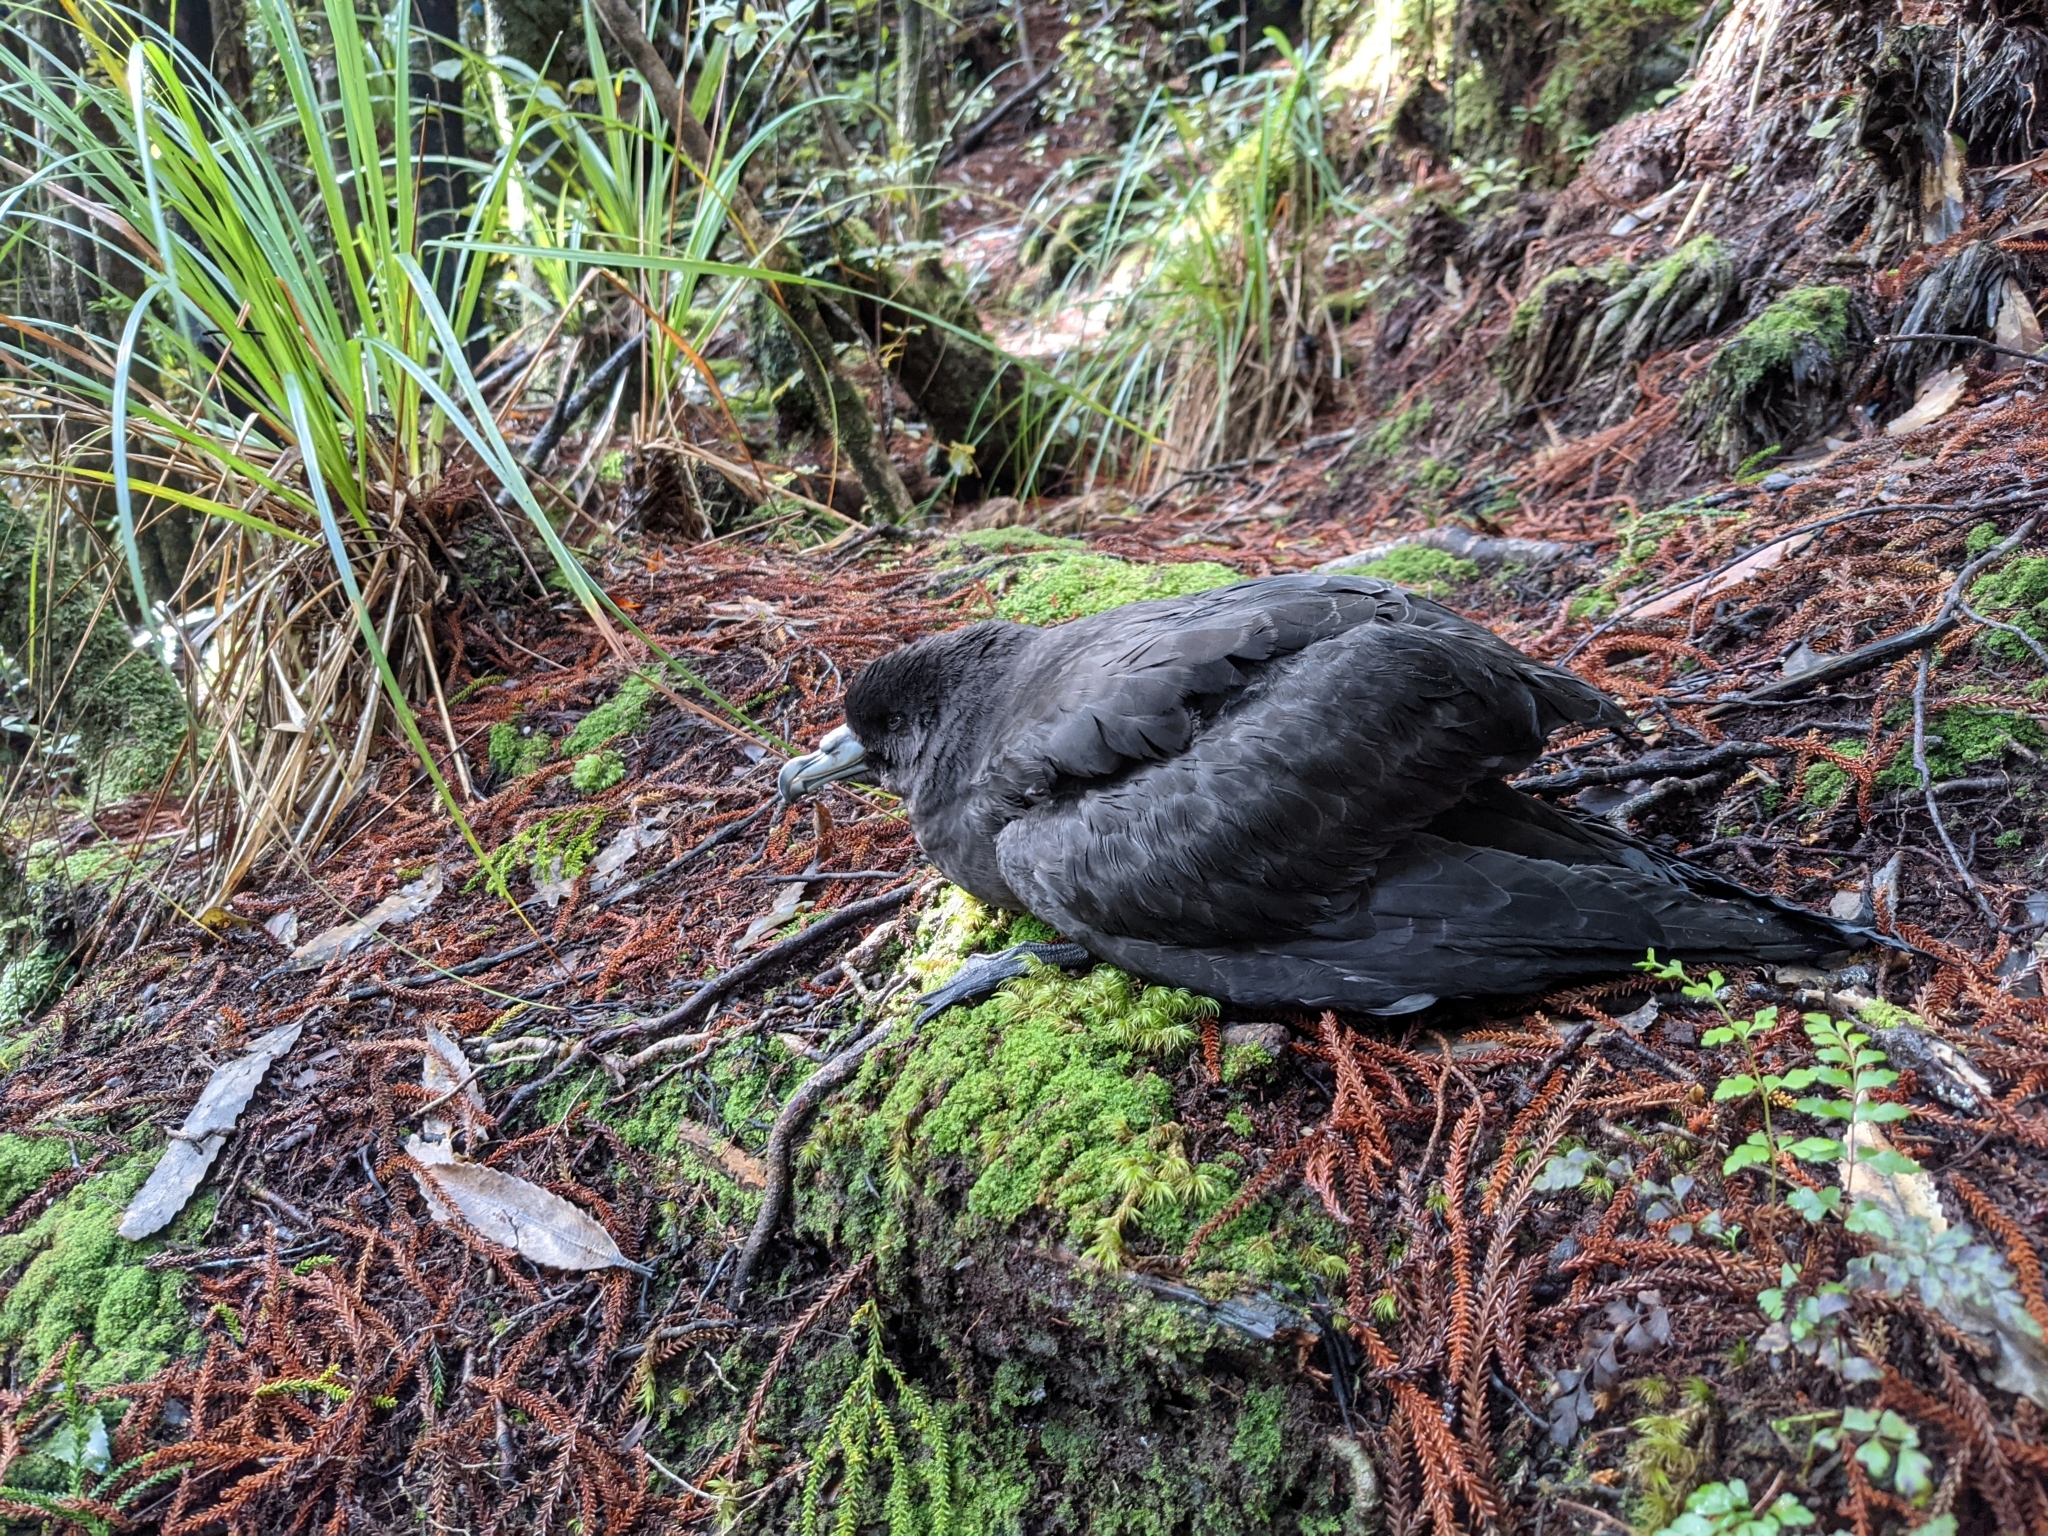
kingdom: Animalia
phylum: Chordata
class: Aves
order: Procellariiformes
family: Procellariidae
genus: Procellaria
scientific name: Procellaria parkinsoni
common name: Black petrel
